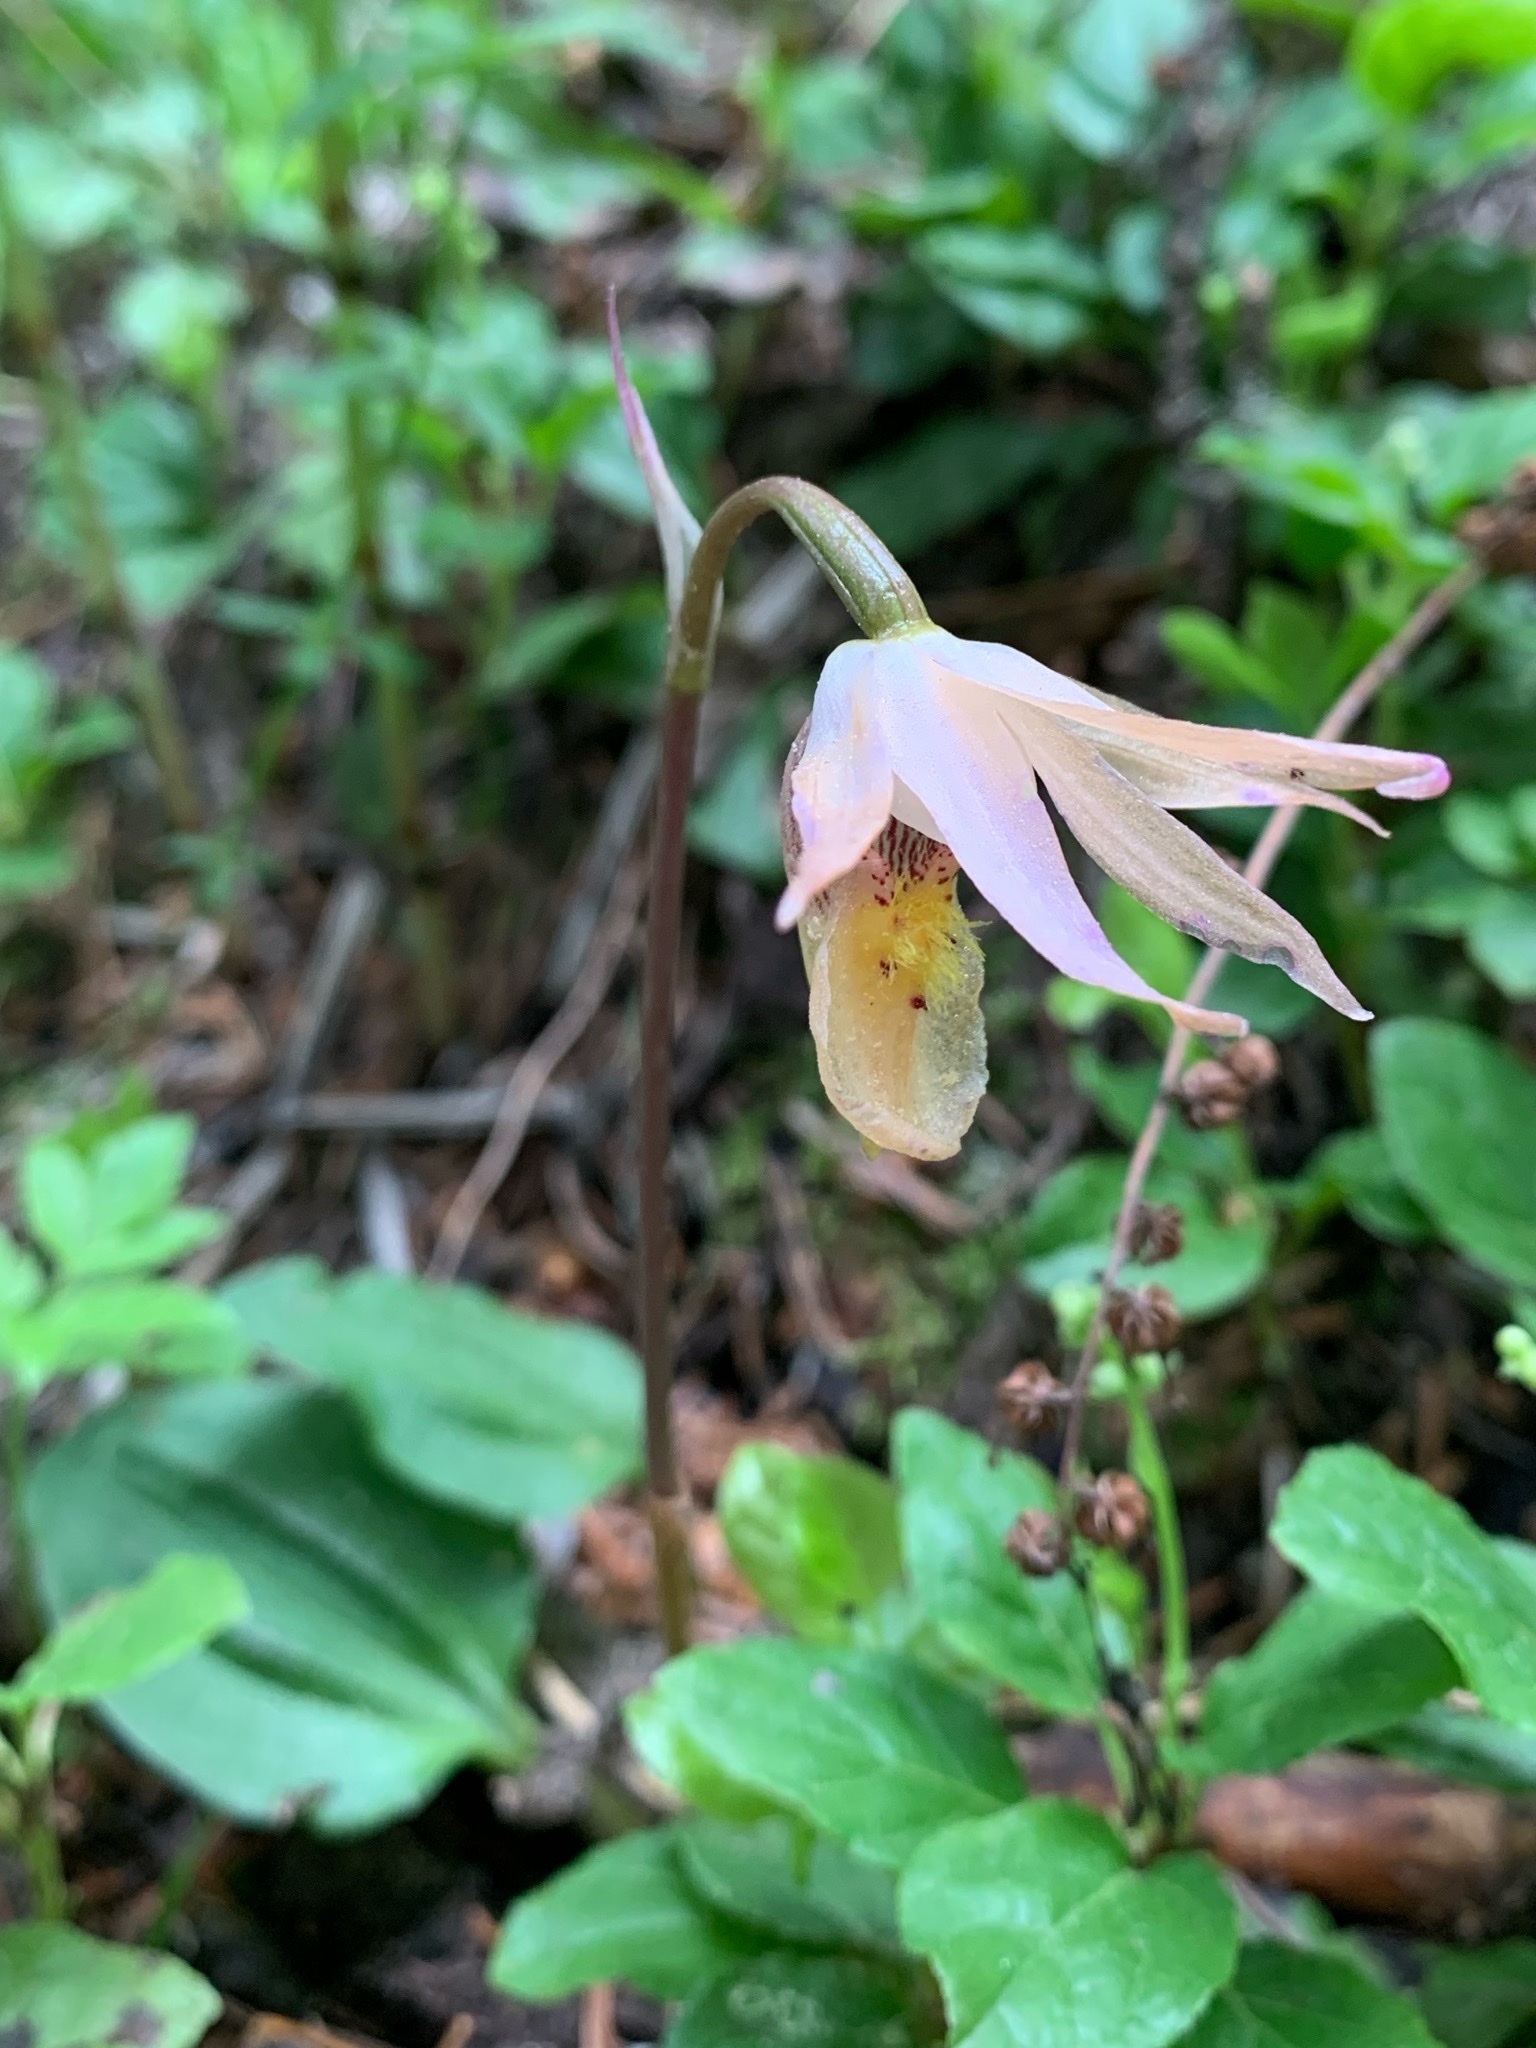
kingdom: Plantae
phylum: Tracheophyta
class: Liliopsida
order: Asparagales
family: Orchidaceae
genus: Calypso
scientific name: Calypso bulbosa
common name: Calypso
